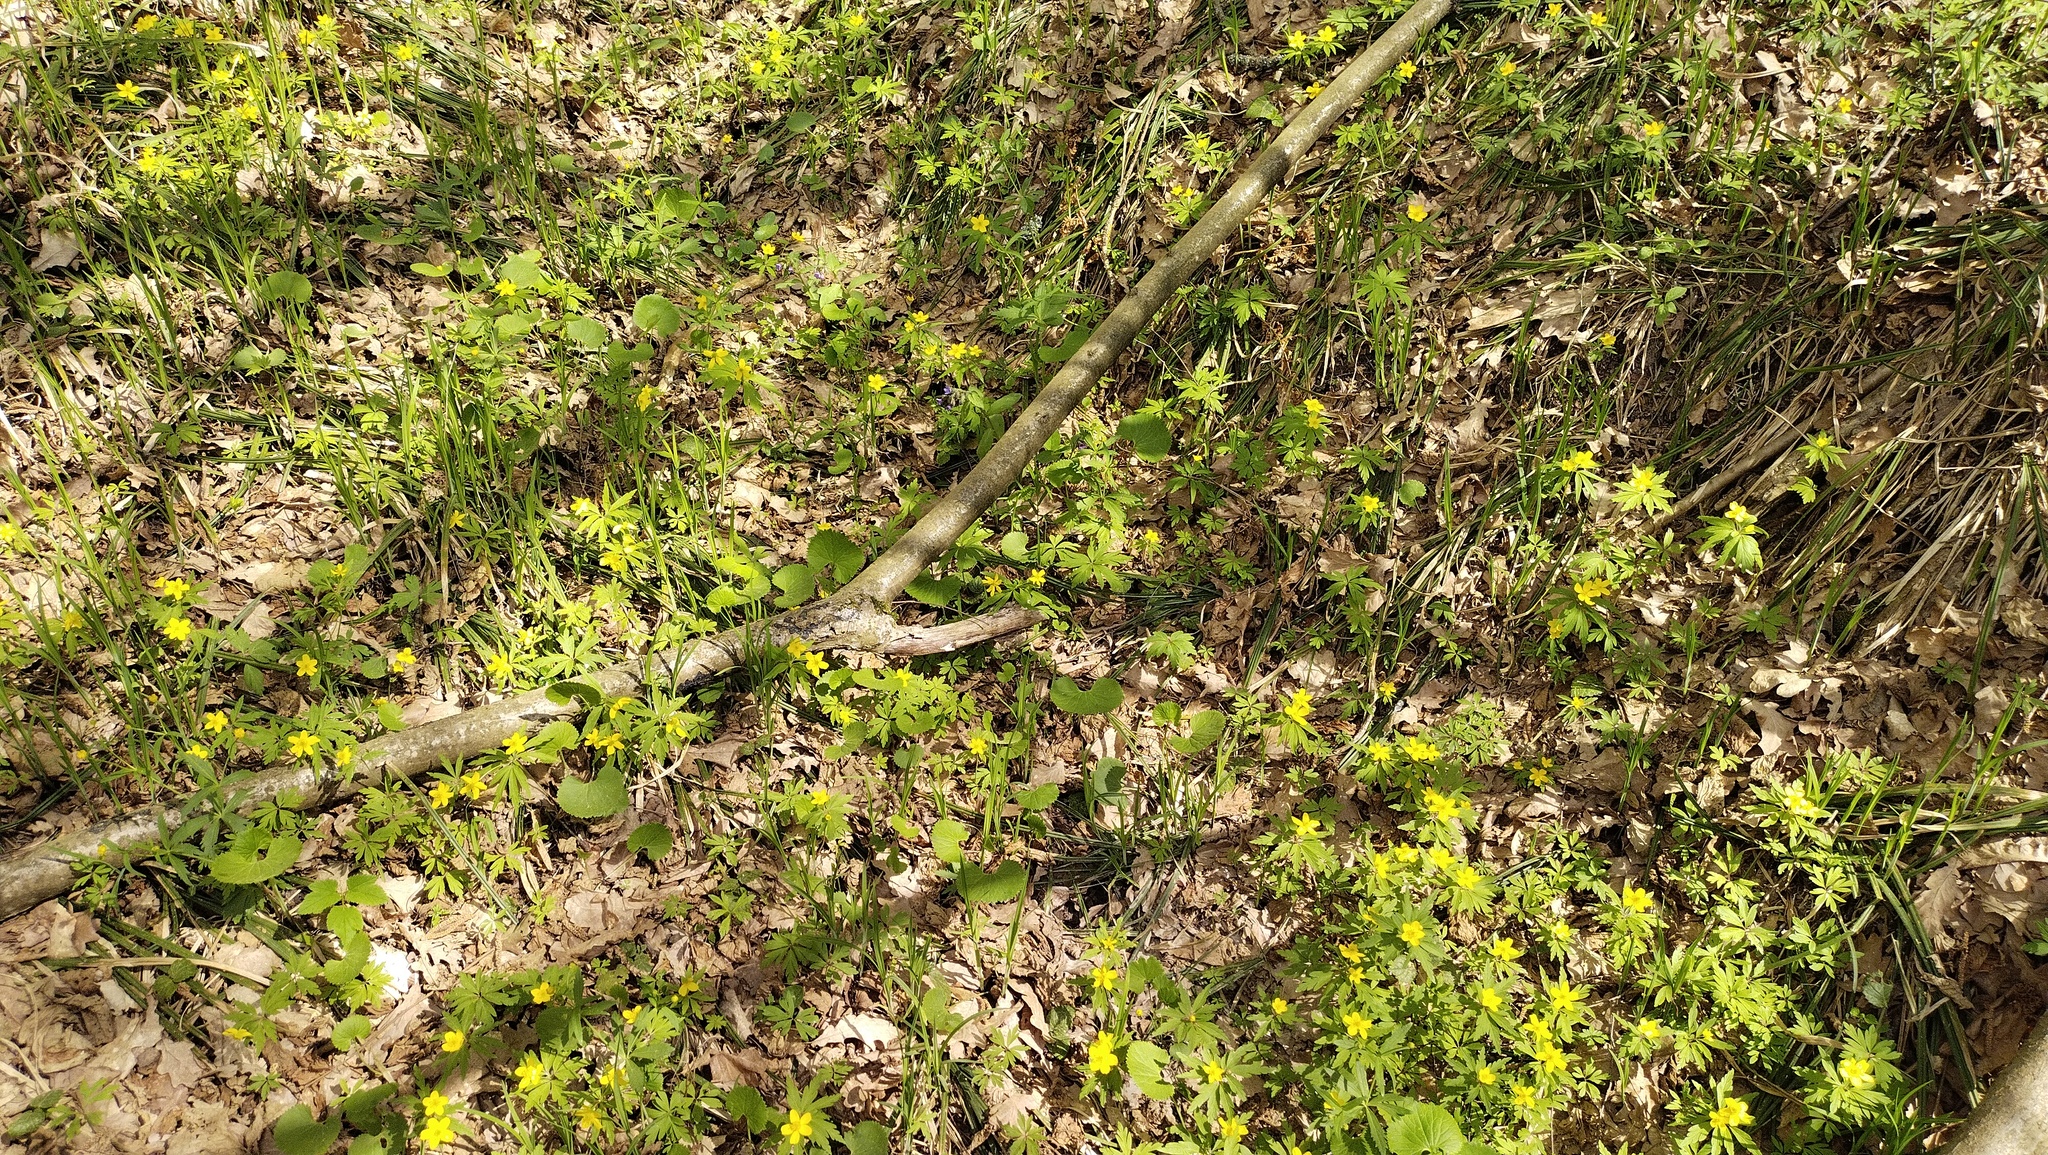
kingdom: Plantae
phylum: Tracheophyta
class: Magnoliopsida
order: Ranunculales
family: Ranunculaceae
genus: Anemone
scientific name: Anemone ranunculoides
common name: Yellow anemone
